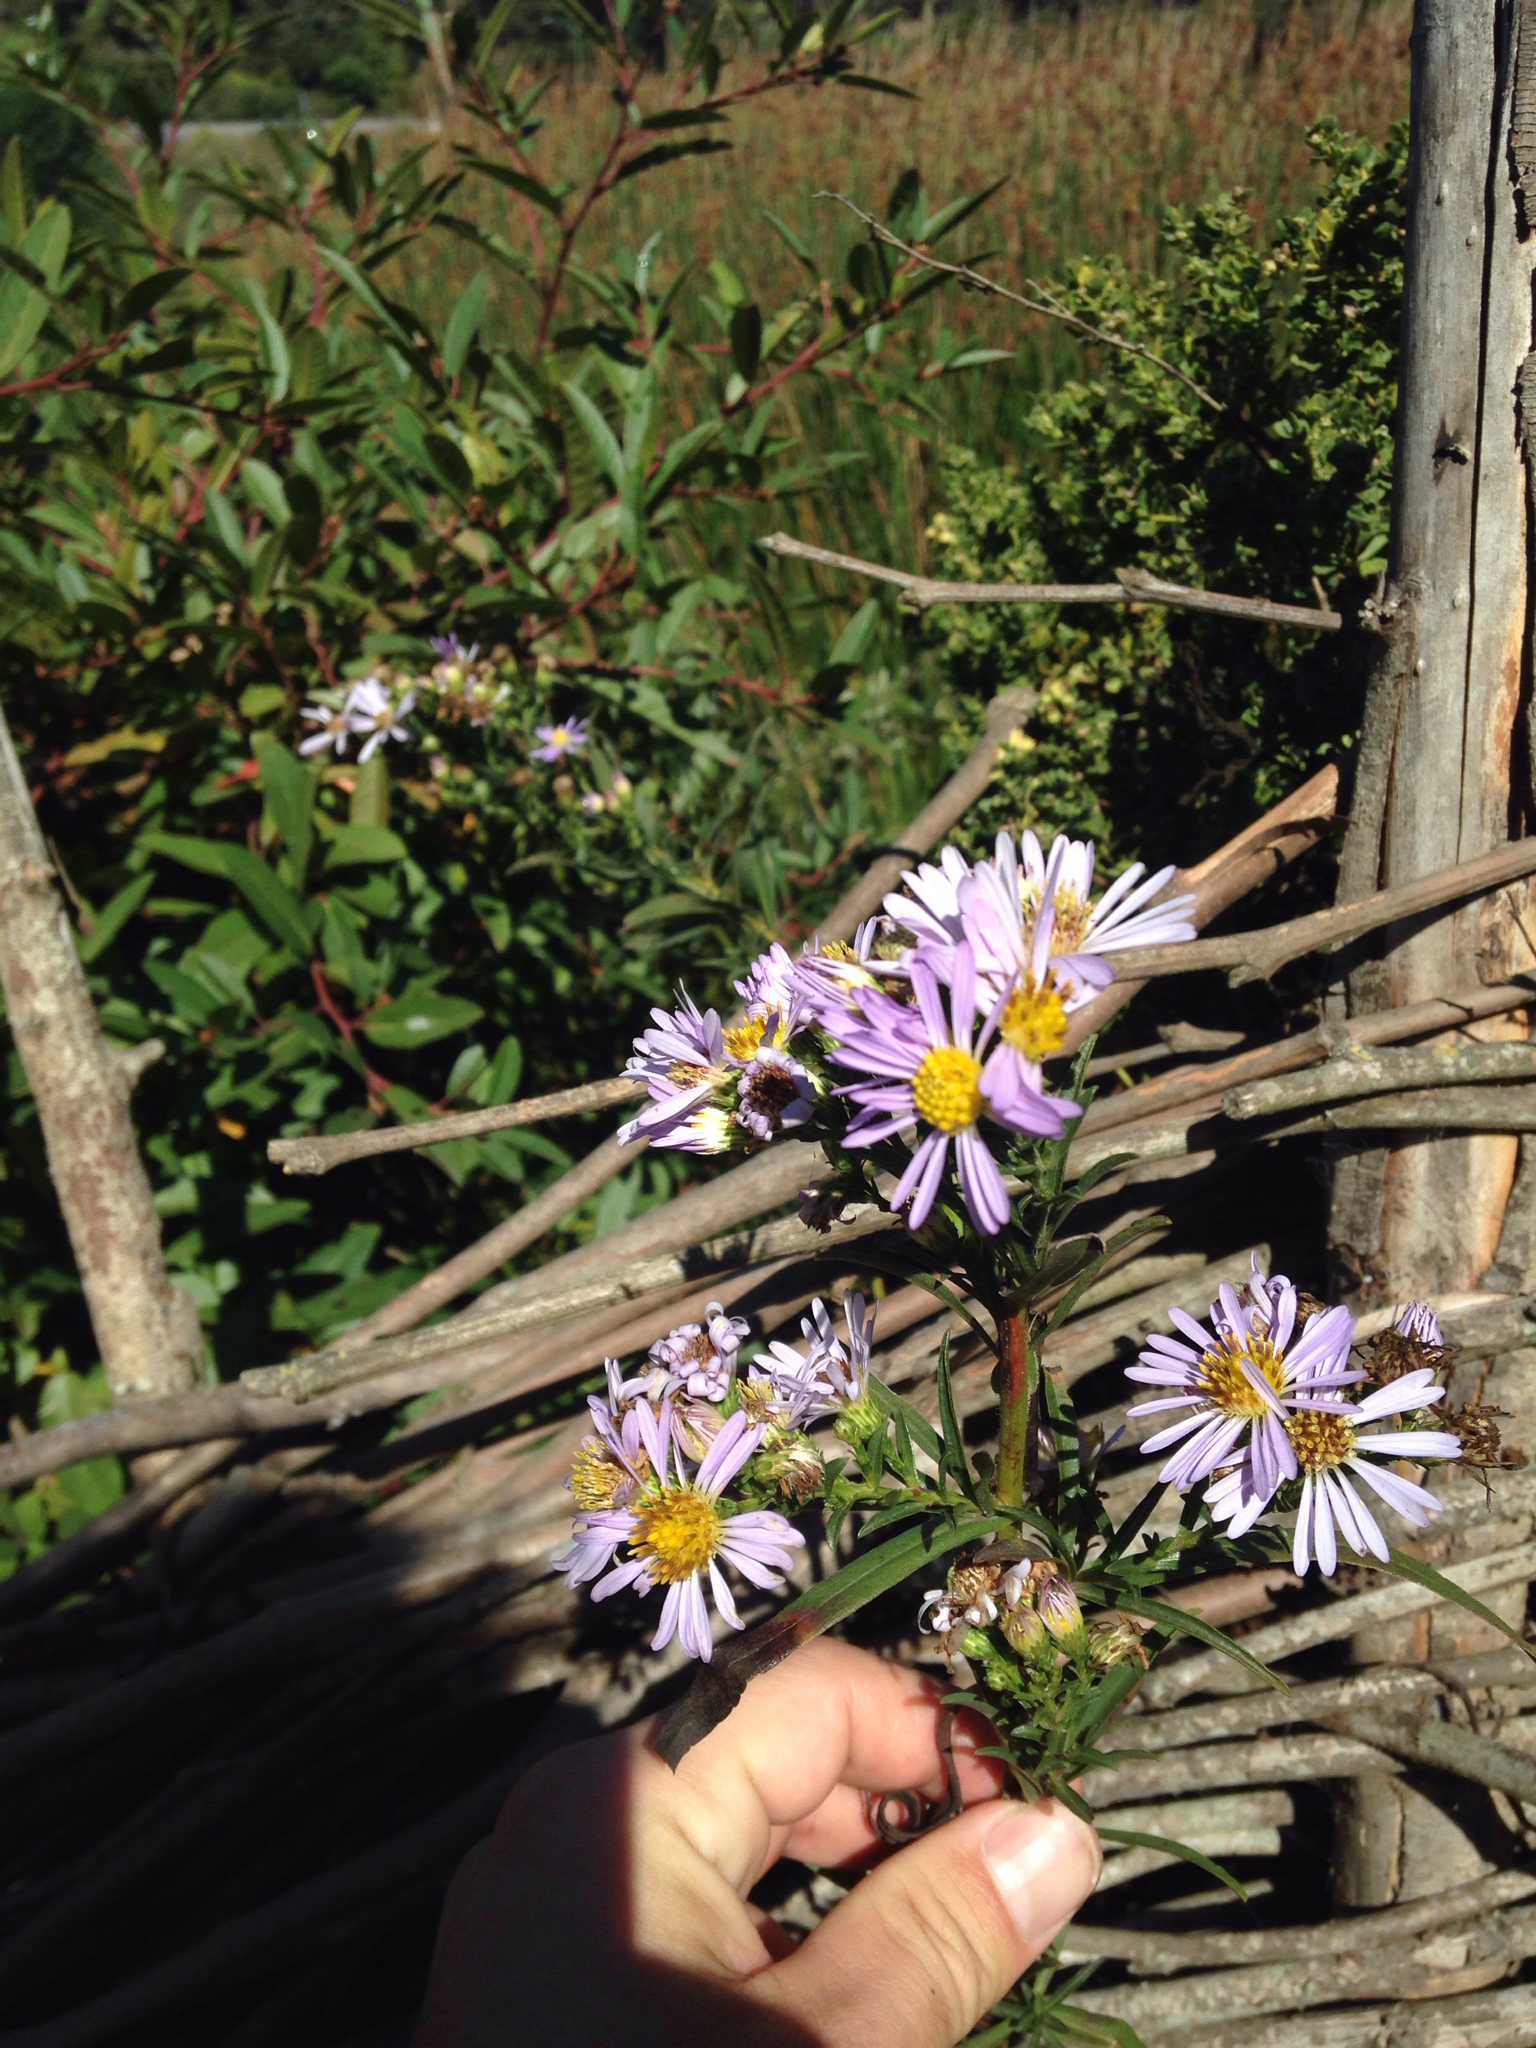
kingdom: Plantae
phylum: Tracheophyta
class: Magnoliopsida
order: Asterales
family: Asteraceae
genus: Symphyotrichum
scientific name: Symphyotrichum chilense
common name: Pacific aster
